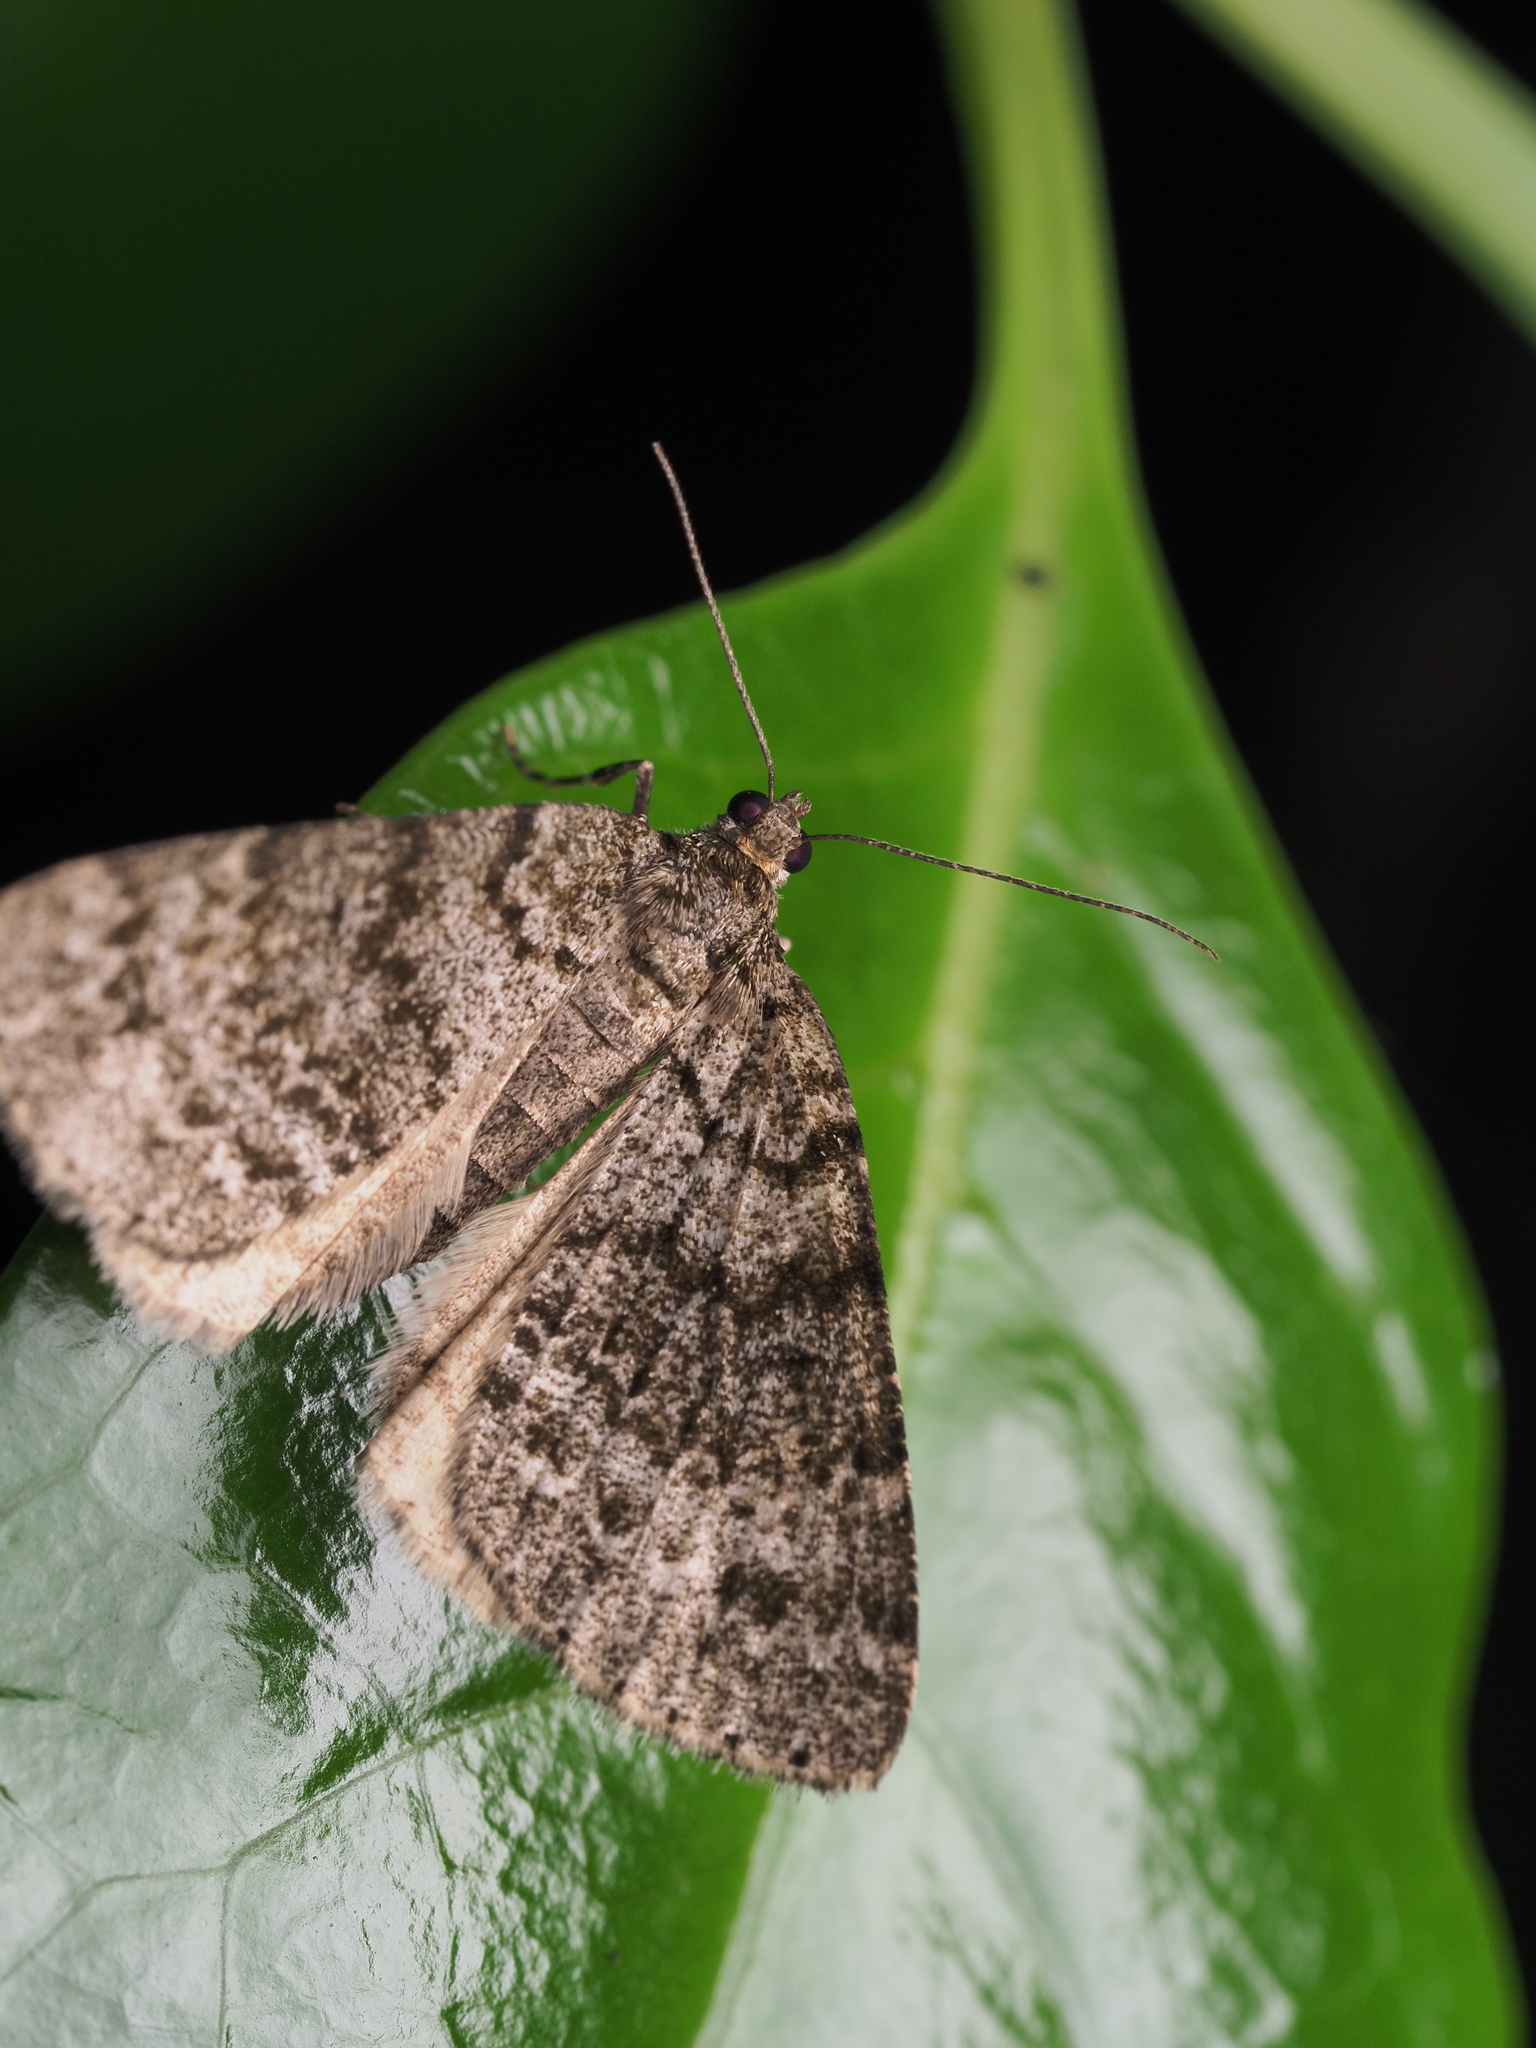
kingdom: Animalia
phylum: Arthropoda
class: Insecta
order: Lepidoptera
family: Geometridae
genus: Pseudocoremia
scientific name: Pseudocoremia indistincta
